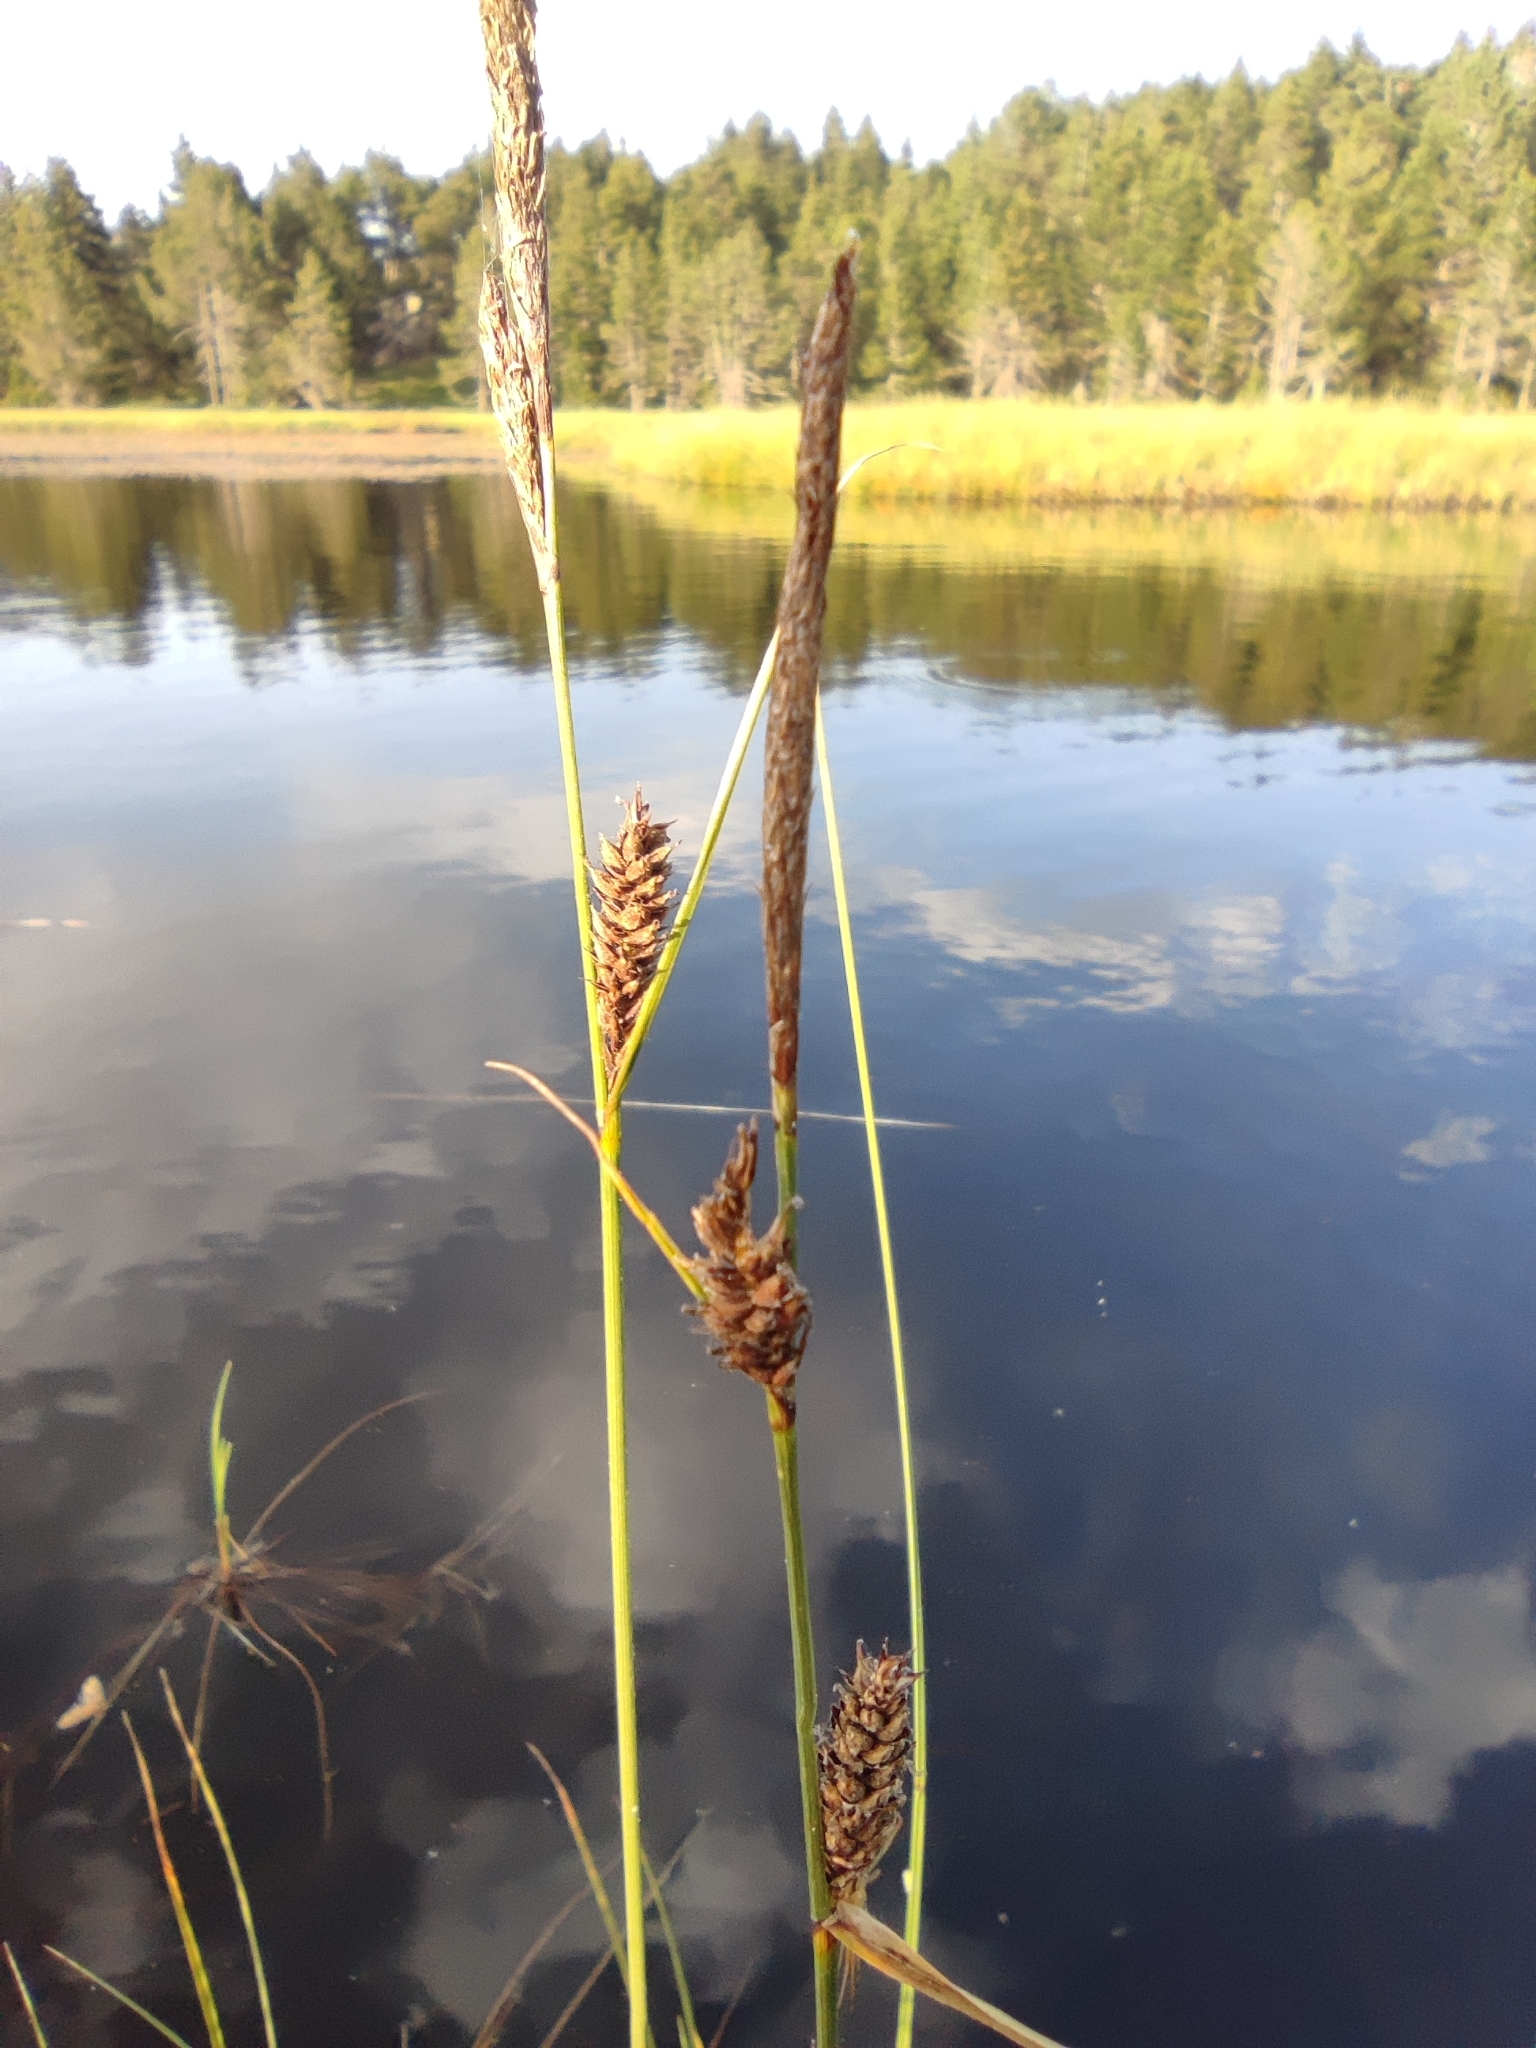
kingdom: Plantae
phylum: Tracheophyta
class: Liliopsida
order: Poales
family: Cyperaceae
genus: Carex
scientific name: Carex lasiocarpa
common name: Slender sedge
